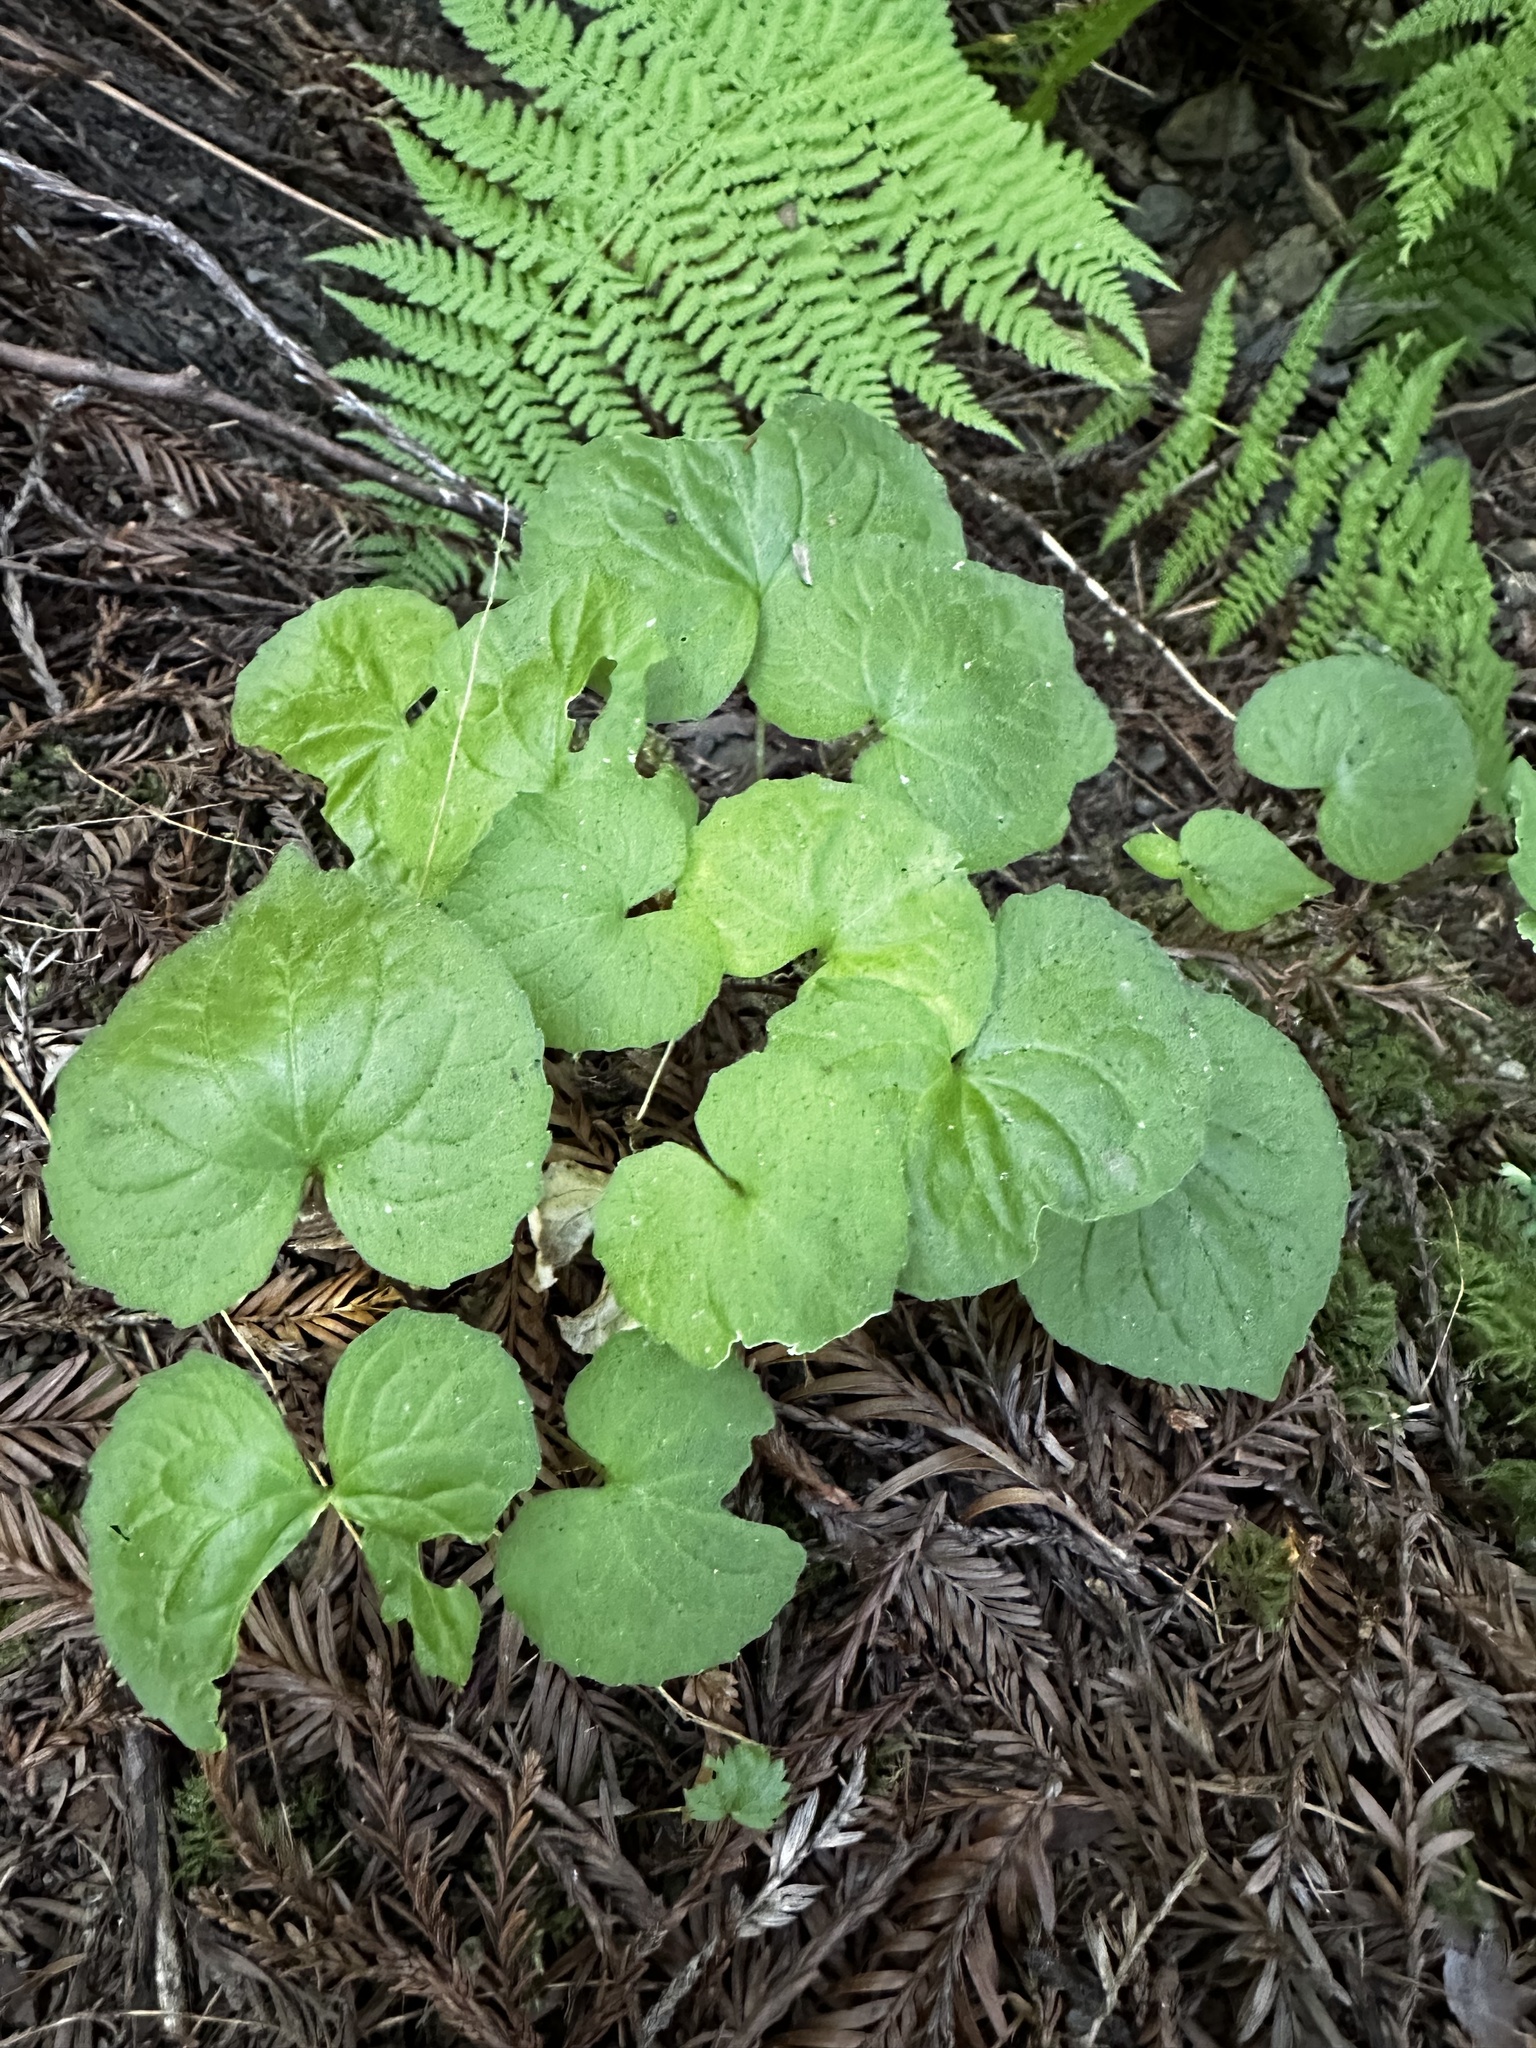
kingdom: Plantae
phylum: Tracheophyta
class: Magnoliopsida
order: Piperales
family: Aristolochiaceae
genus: Asarum
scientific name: Asarum caudatum
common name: Wild ginger
